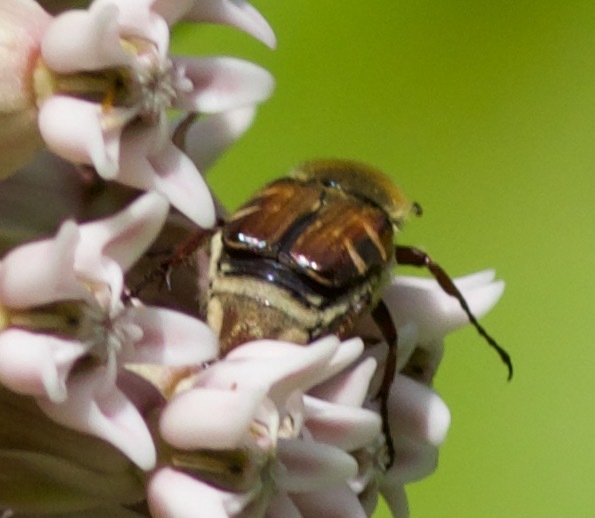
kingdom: Animalia
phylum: Arthropoda
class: Insecta
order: Coleoptera
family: Scarabaeidae
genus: Trichiotinus
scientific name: Trichiotinus assimilis
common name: Bee-mimic beetle
